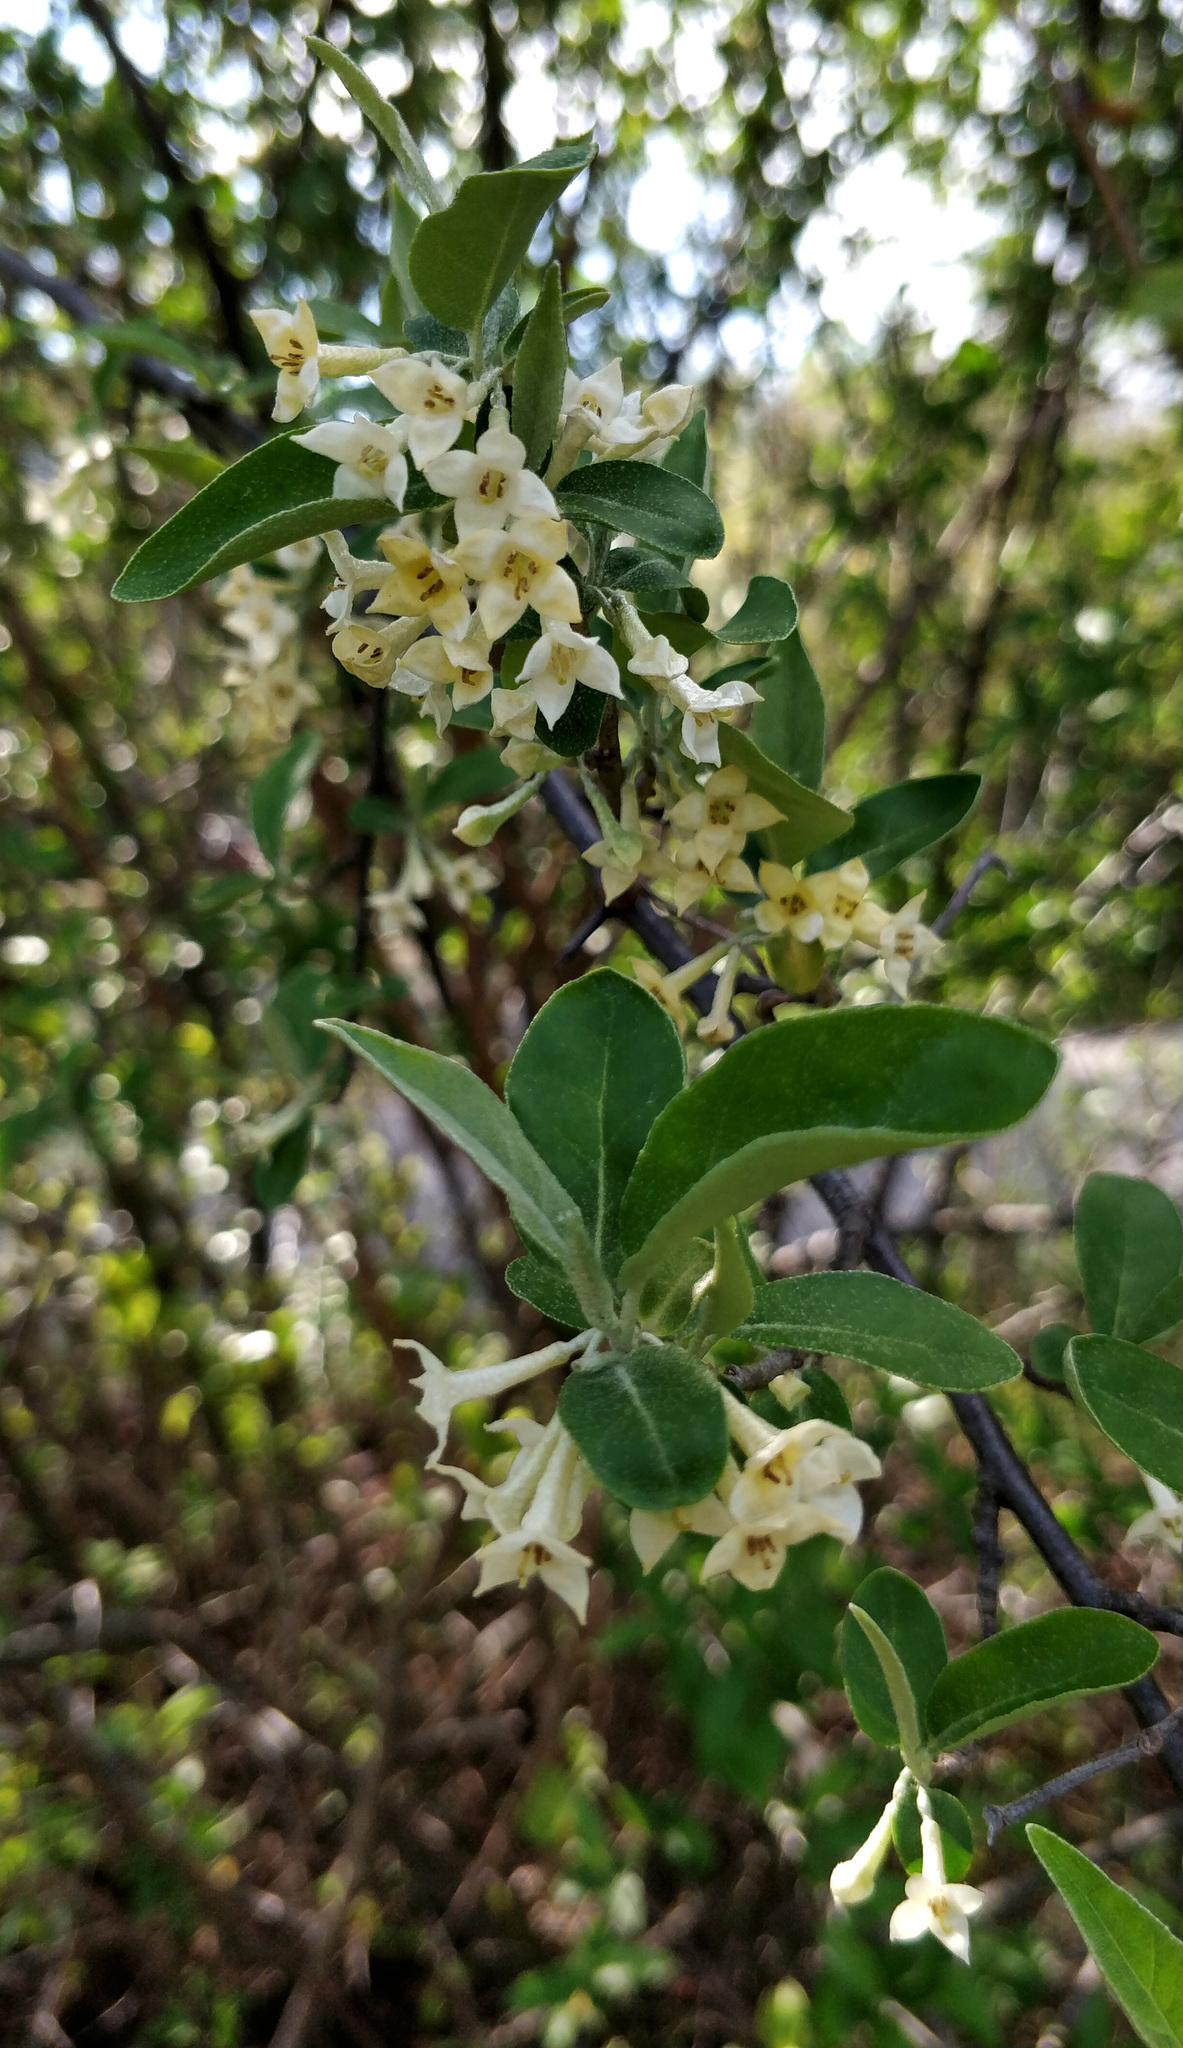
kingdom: Plantae
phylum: Tracheophyta
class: Magnoliopsida
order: Rosales
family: Elaeagnaceae
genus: Elaeagnus
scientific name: Elaeagnus umbellata
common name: Autumn olive
